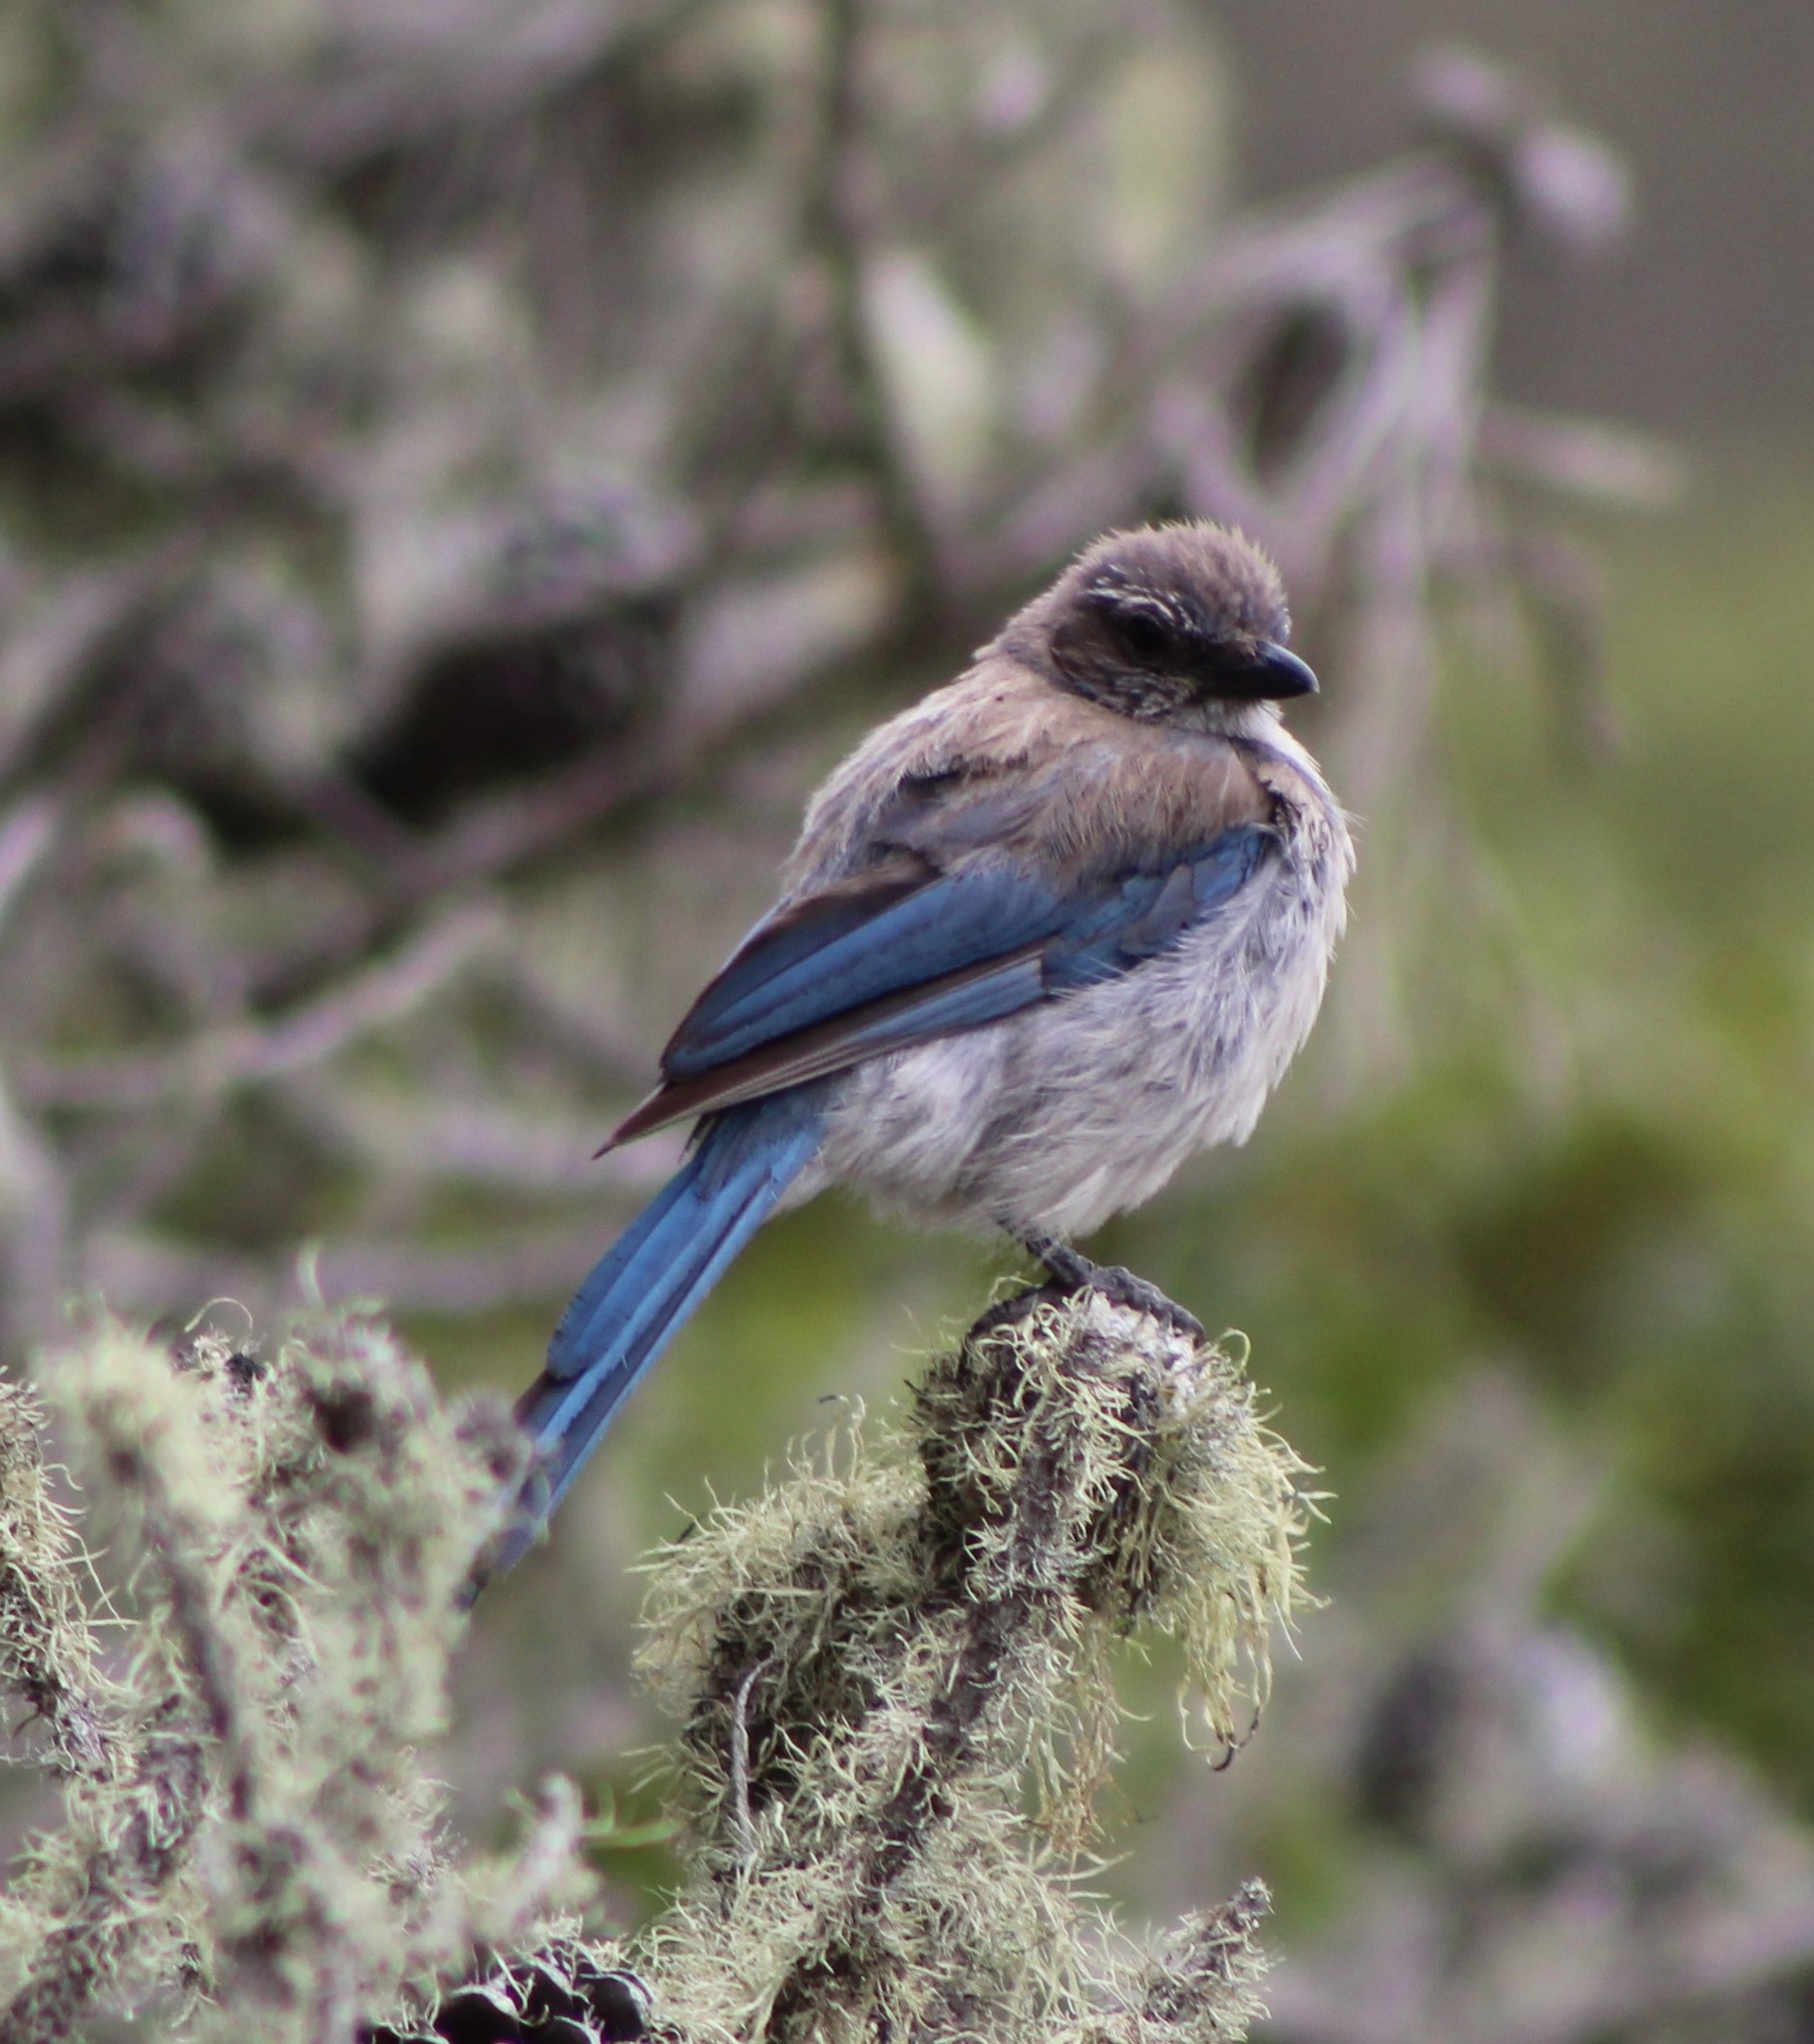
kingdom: Animalia
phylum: Chordata
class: Aves
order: Passeriformes
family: Corvidae
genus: Aphelocoma
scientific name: Aphelocoma californica
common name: California scrub-jay
